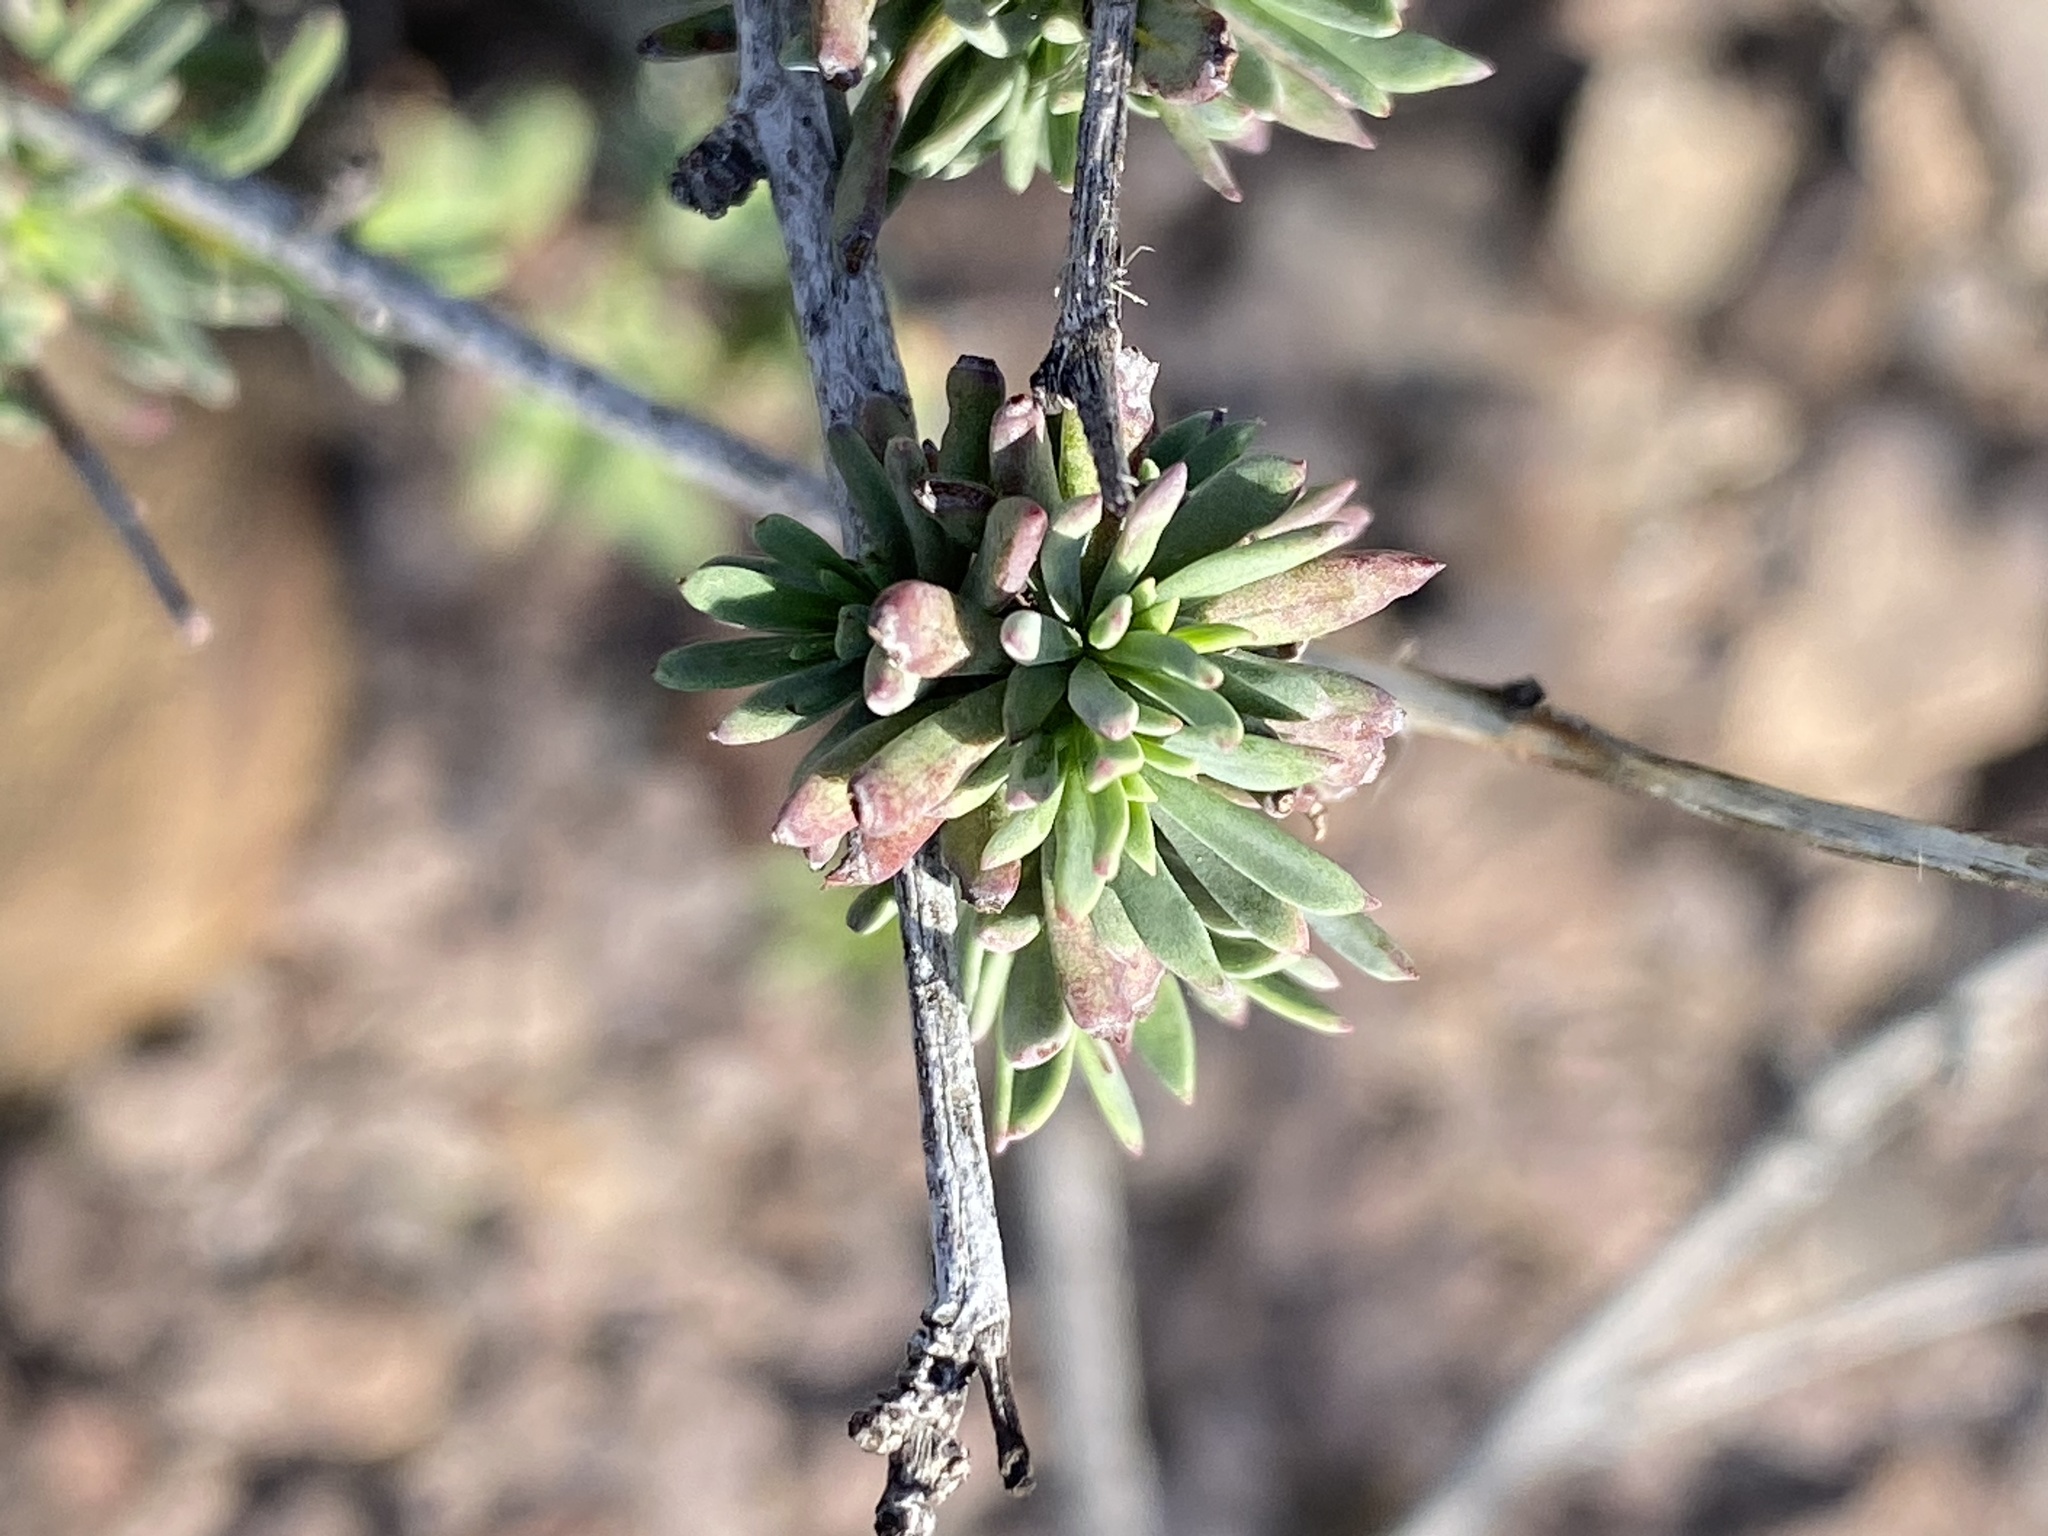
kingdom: Plantae
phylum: Tracheophyta
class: Magnoliopsida
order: Malvales
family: Malvaceae
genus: Hermannia
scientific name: Hermannia filifolia
